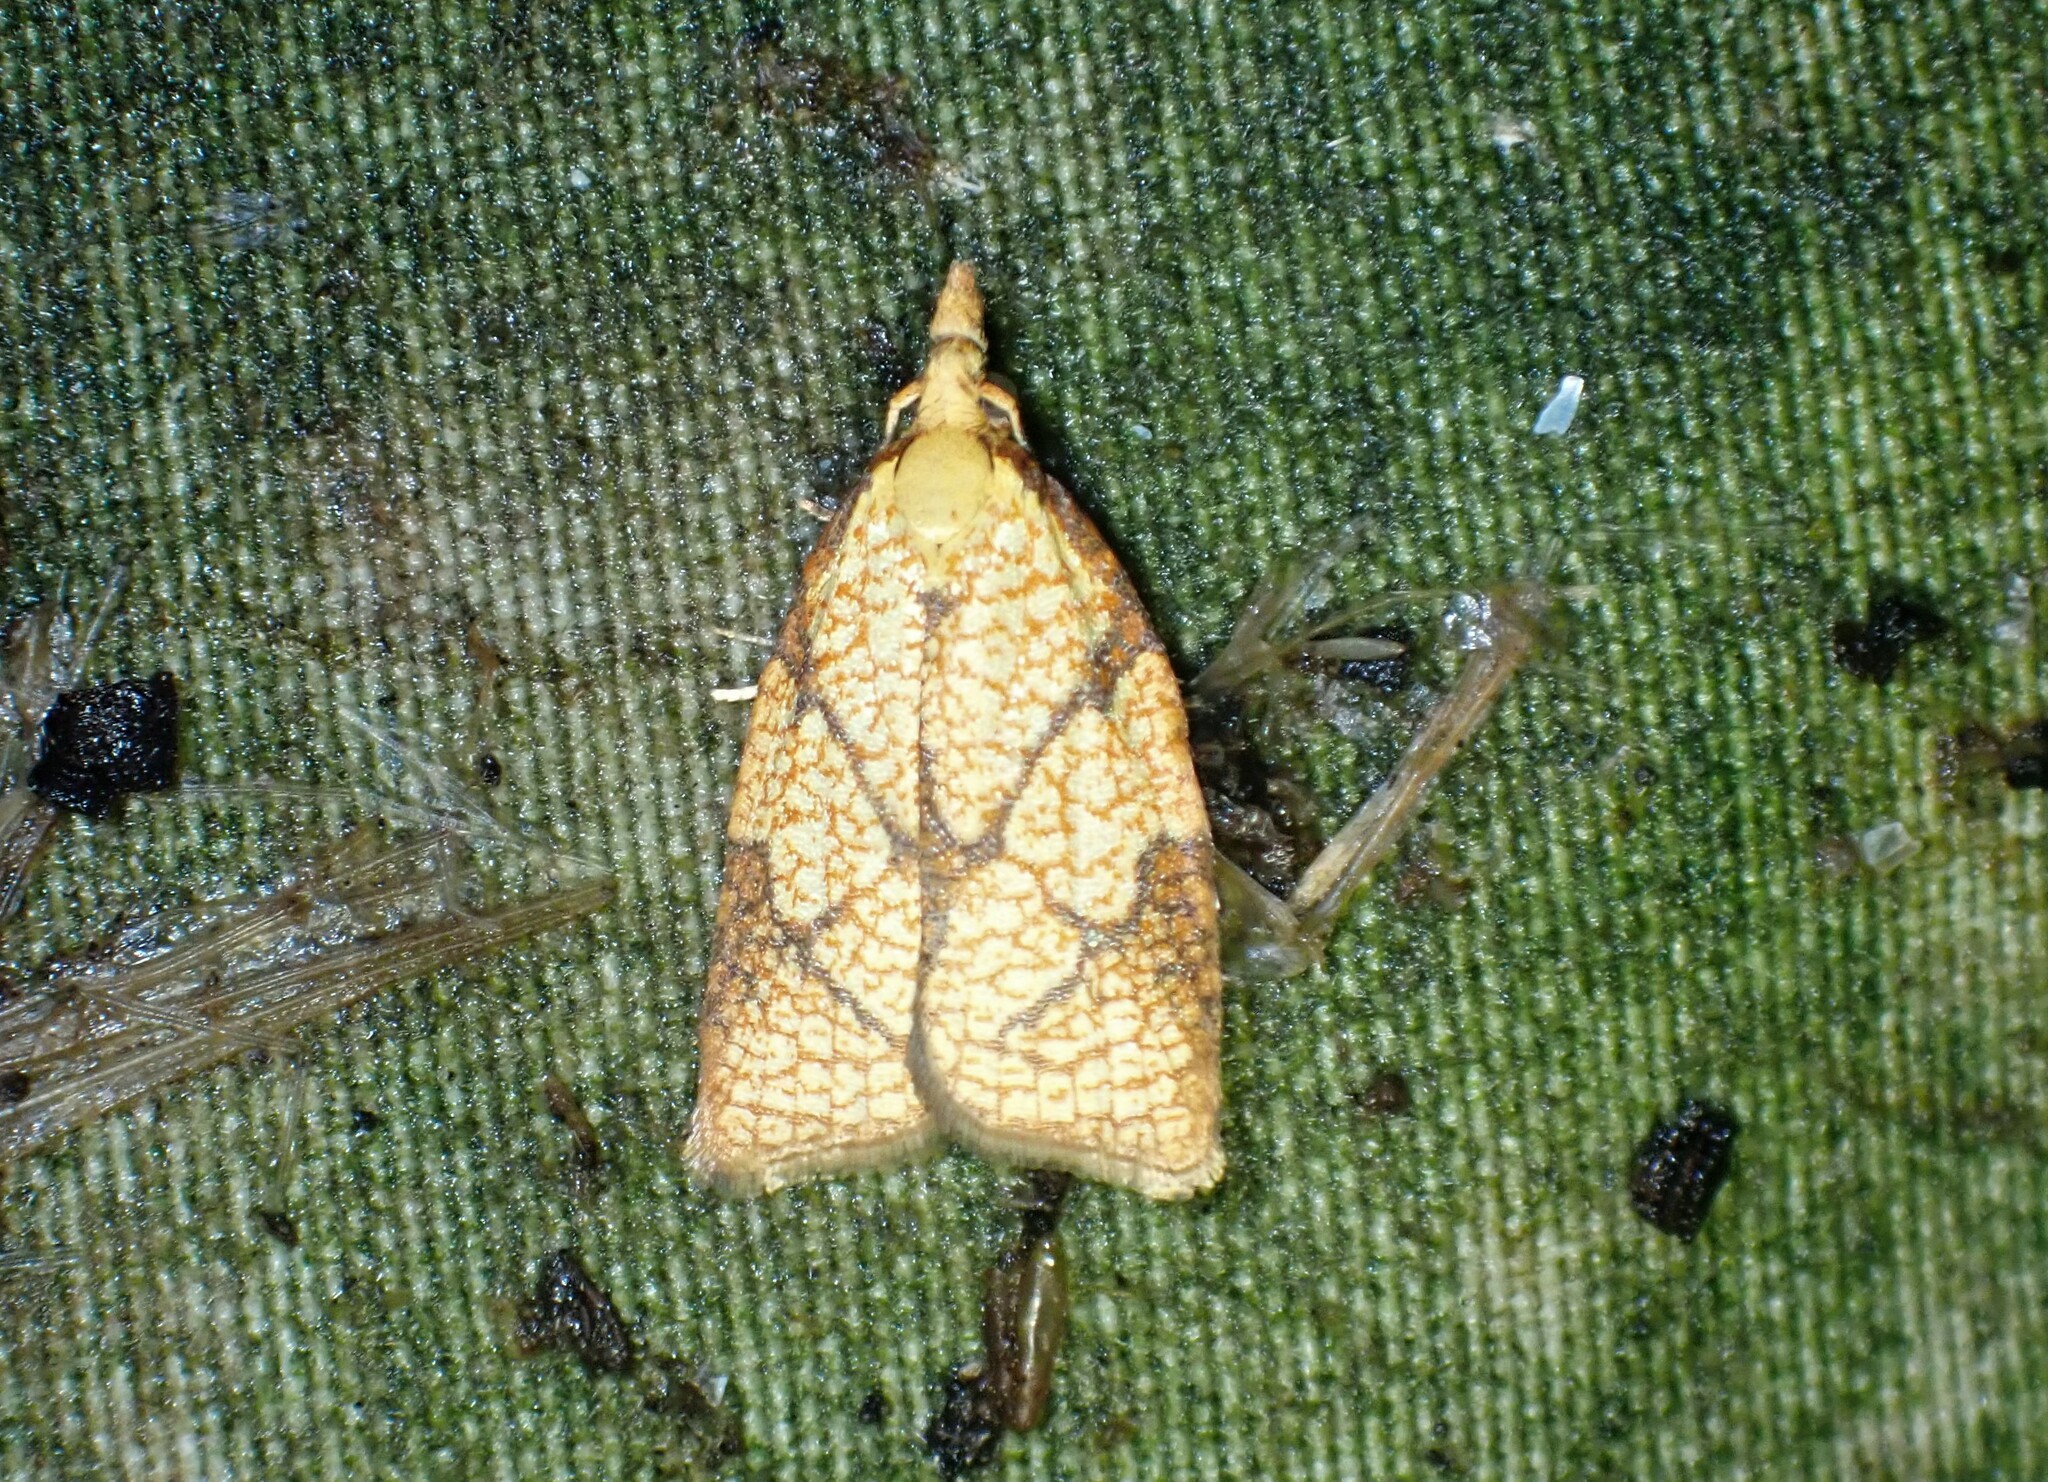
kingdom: Animalia
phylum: Arthropoda
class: Insecta
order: Lepidoptera
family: Tortricidae
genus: Cenopis
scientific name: Cenopis reticulatana
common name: Reticulated fruitworm moth
